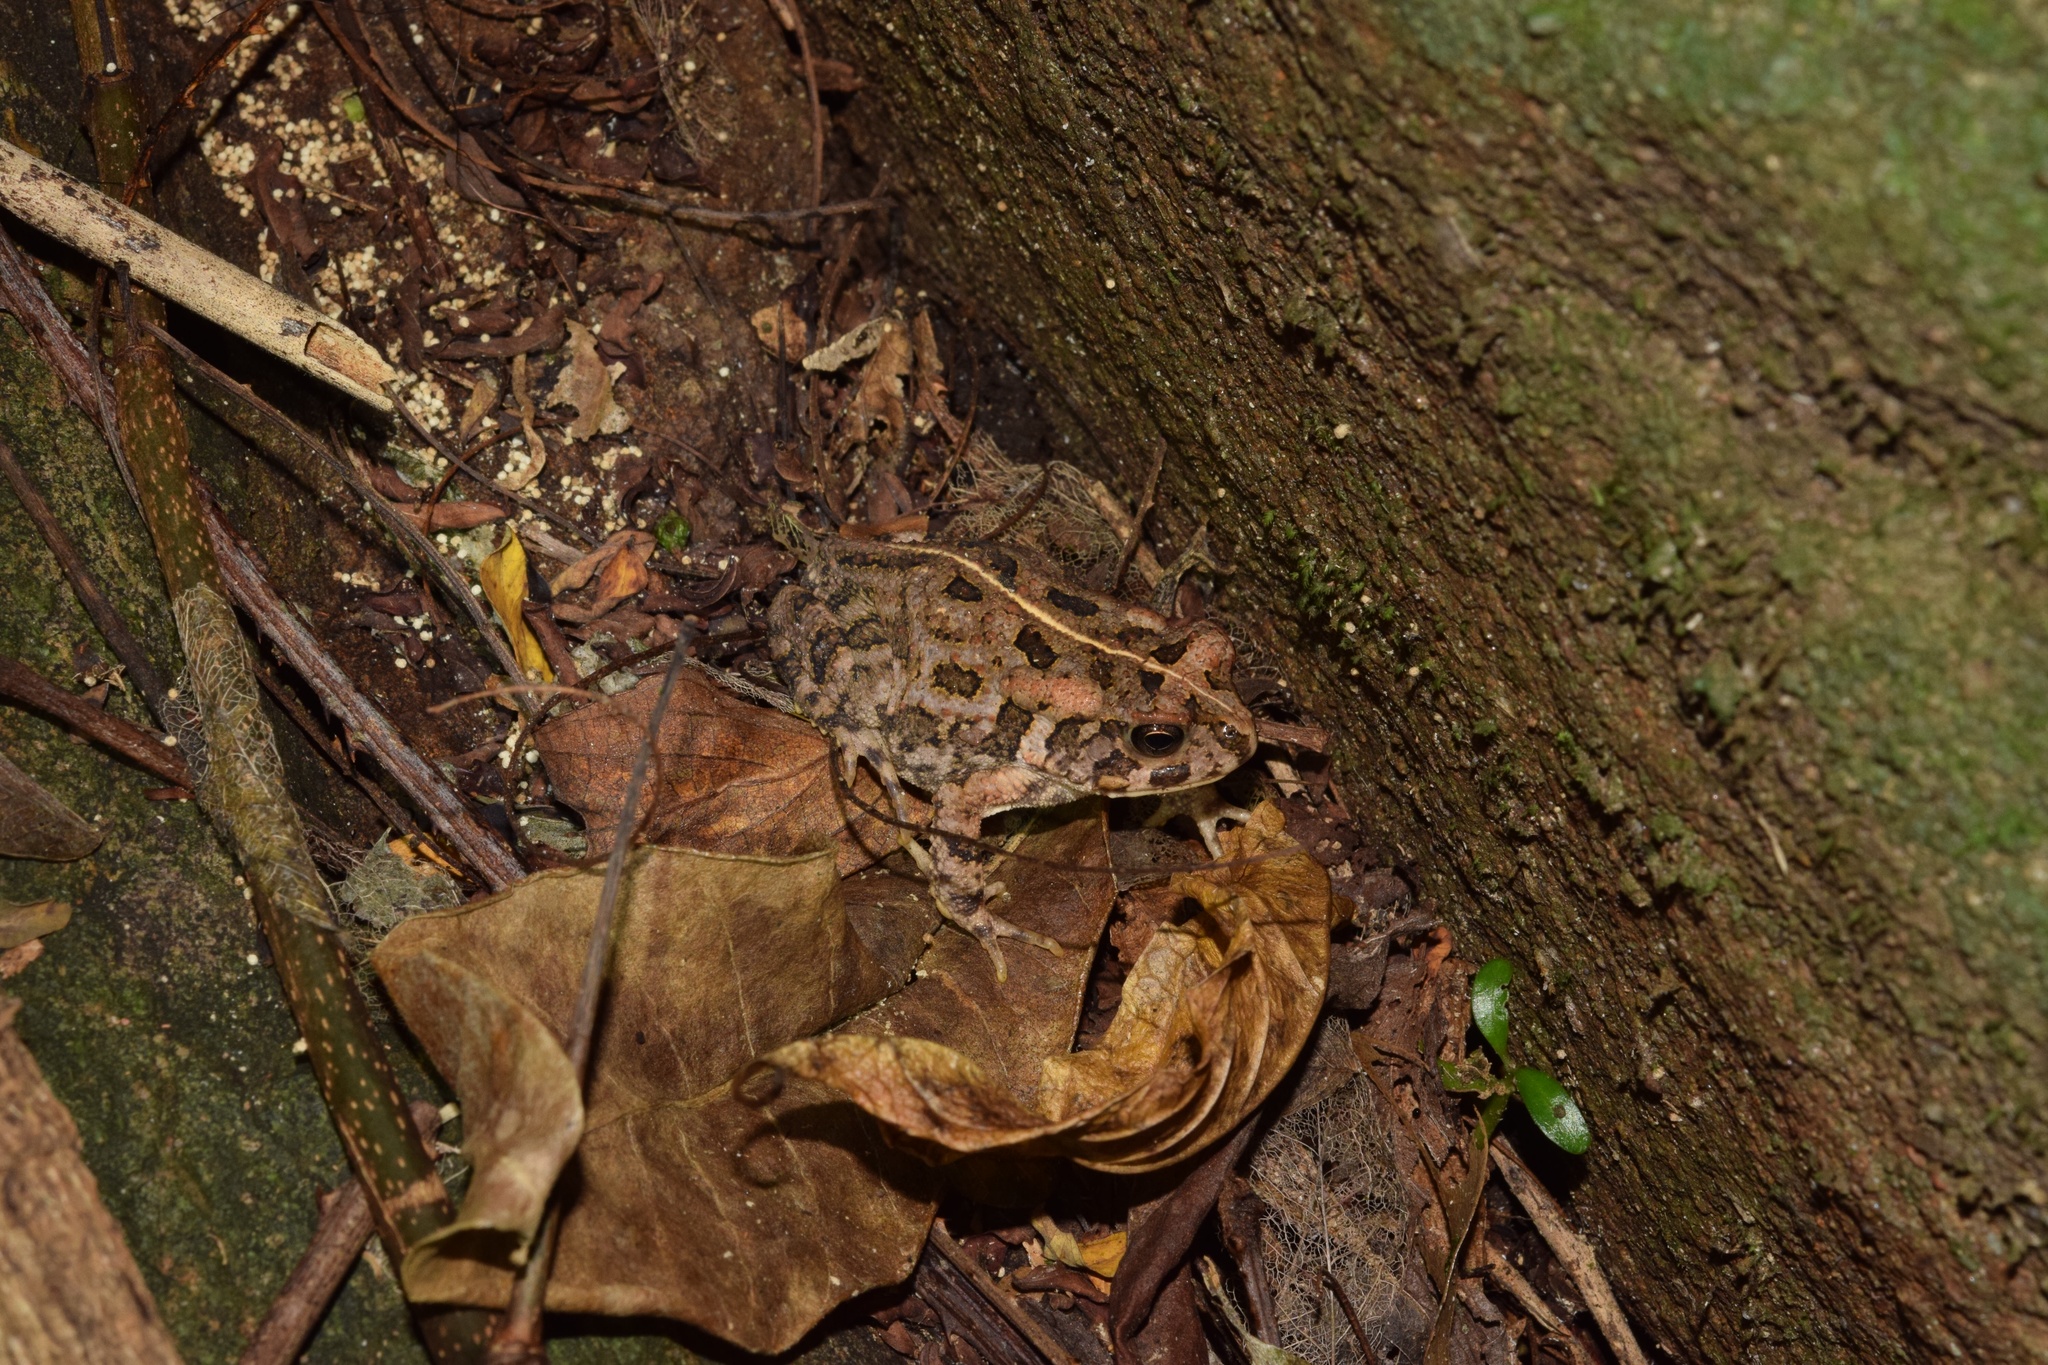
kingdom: Animalia
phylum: Chordata
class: Amphibia
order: Anura
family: Bufonidae
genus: Sclerophrys
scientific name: Sclerophrys gutturalis
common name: African common toad
